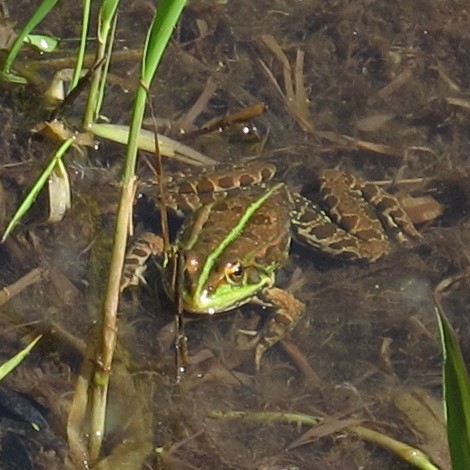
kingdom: Animalia
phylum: Chordata
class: Amphibia
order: Anura
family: Ranidae
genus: Pelophylax
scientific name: Pelophylax
